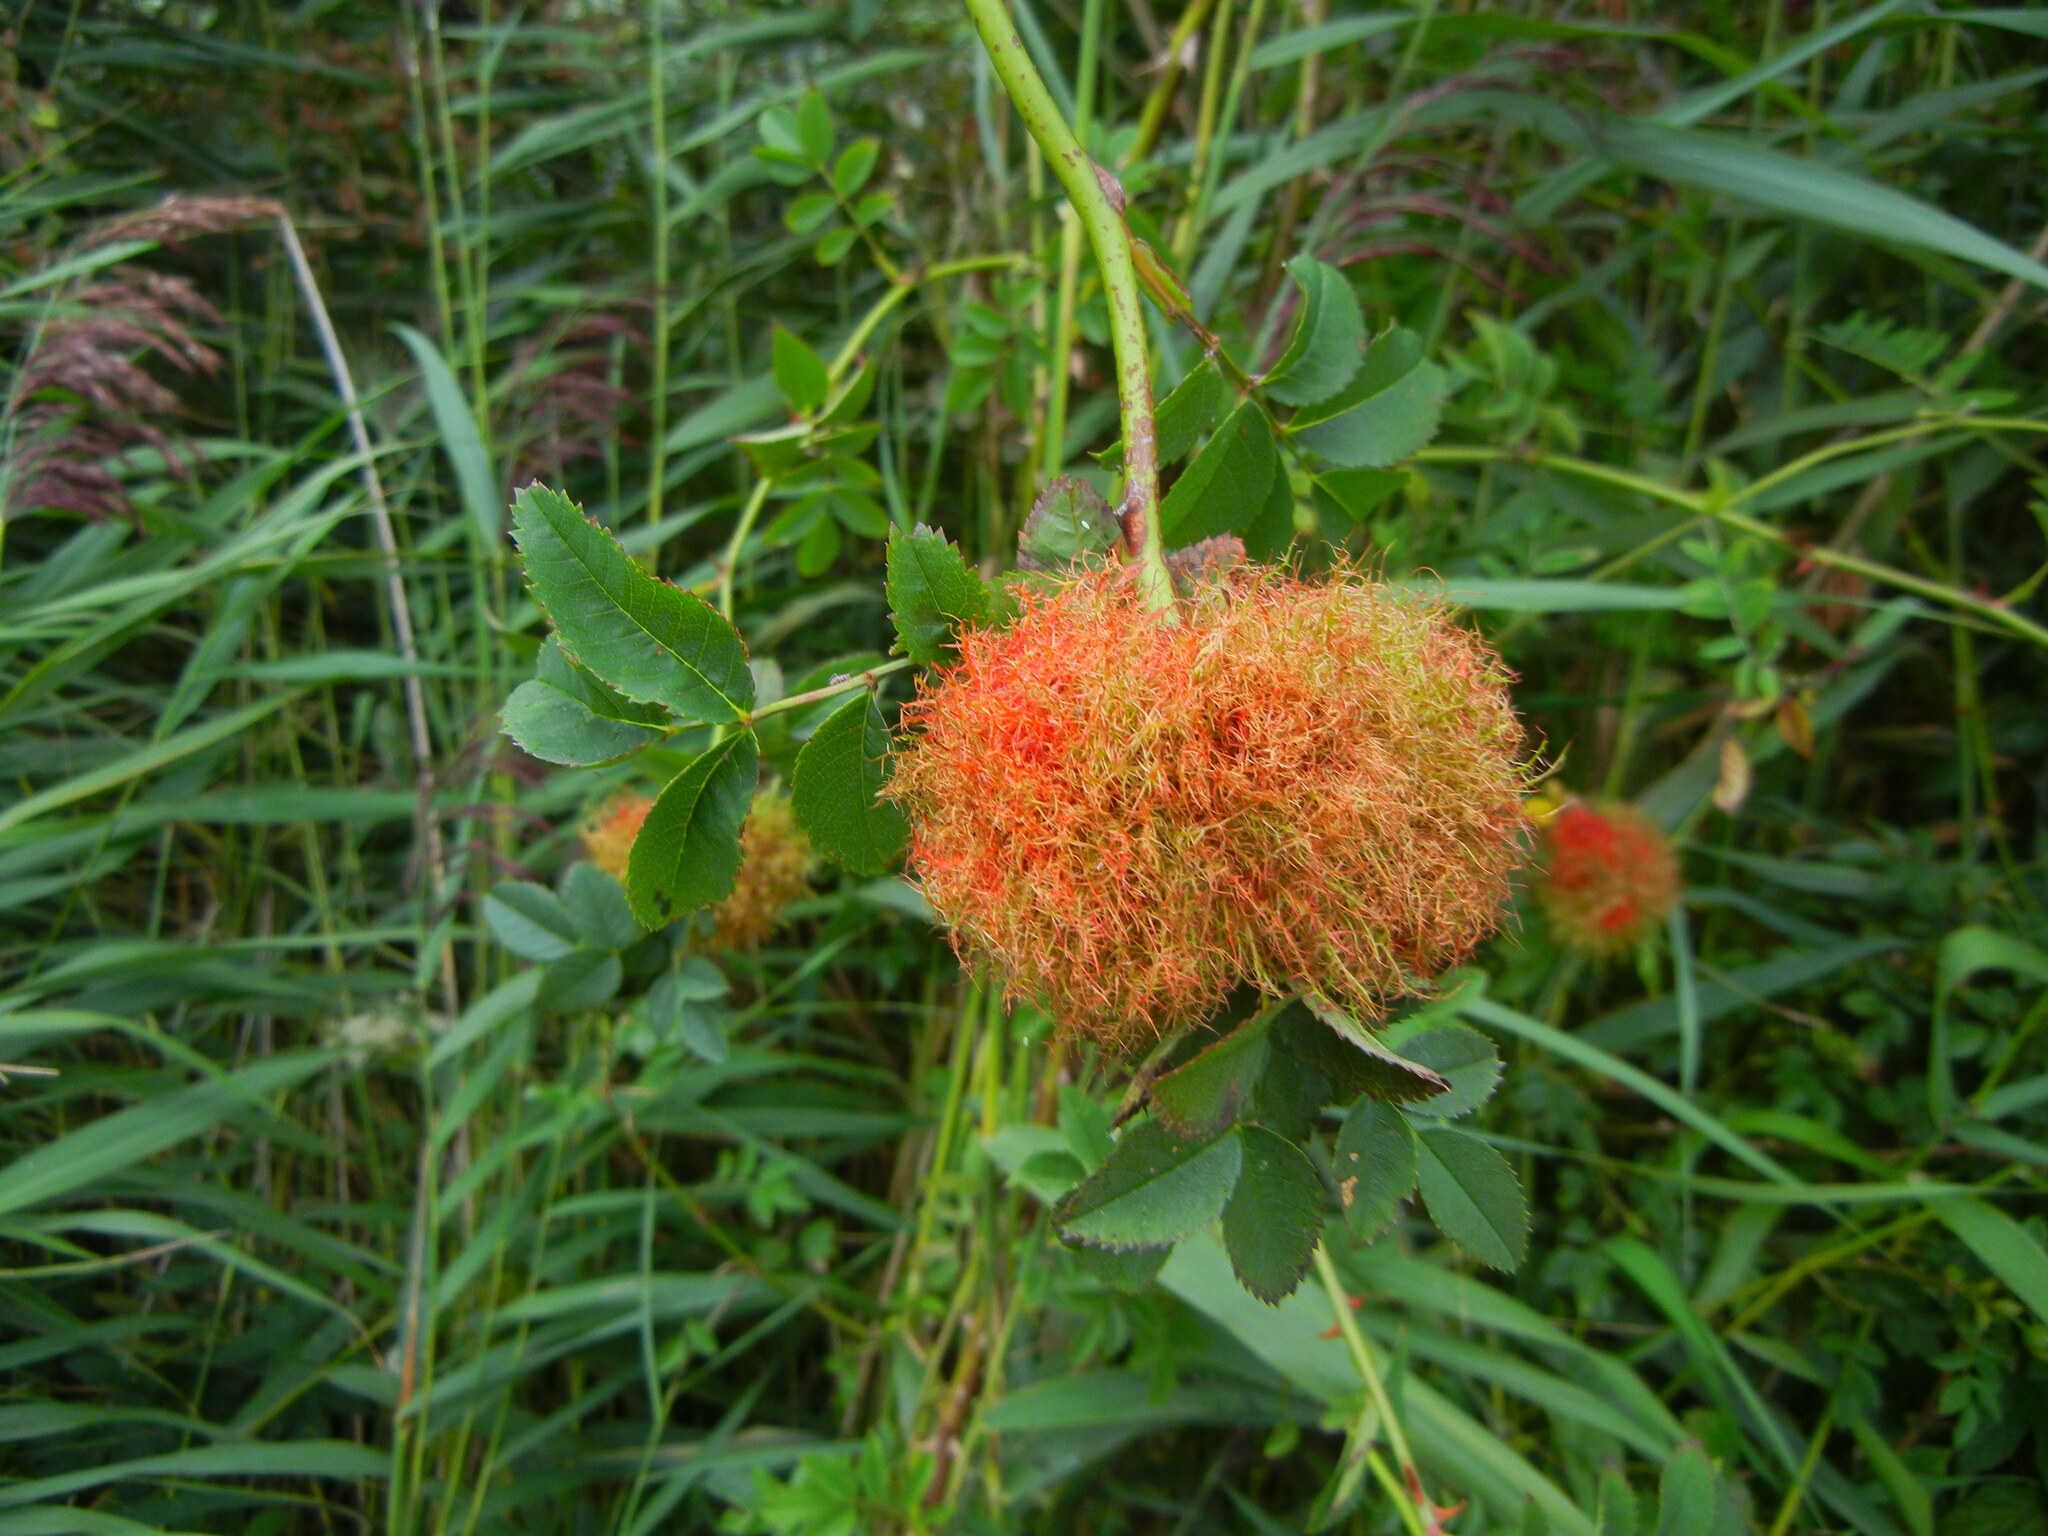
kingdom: Animalia
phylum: Arthropoda
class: Insecta
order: Hymenoptera
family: Cynipidae
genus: Diplolepis
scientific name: Diplolepis rosae
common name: Bedeguar gall
